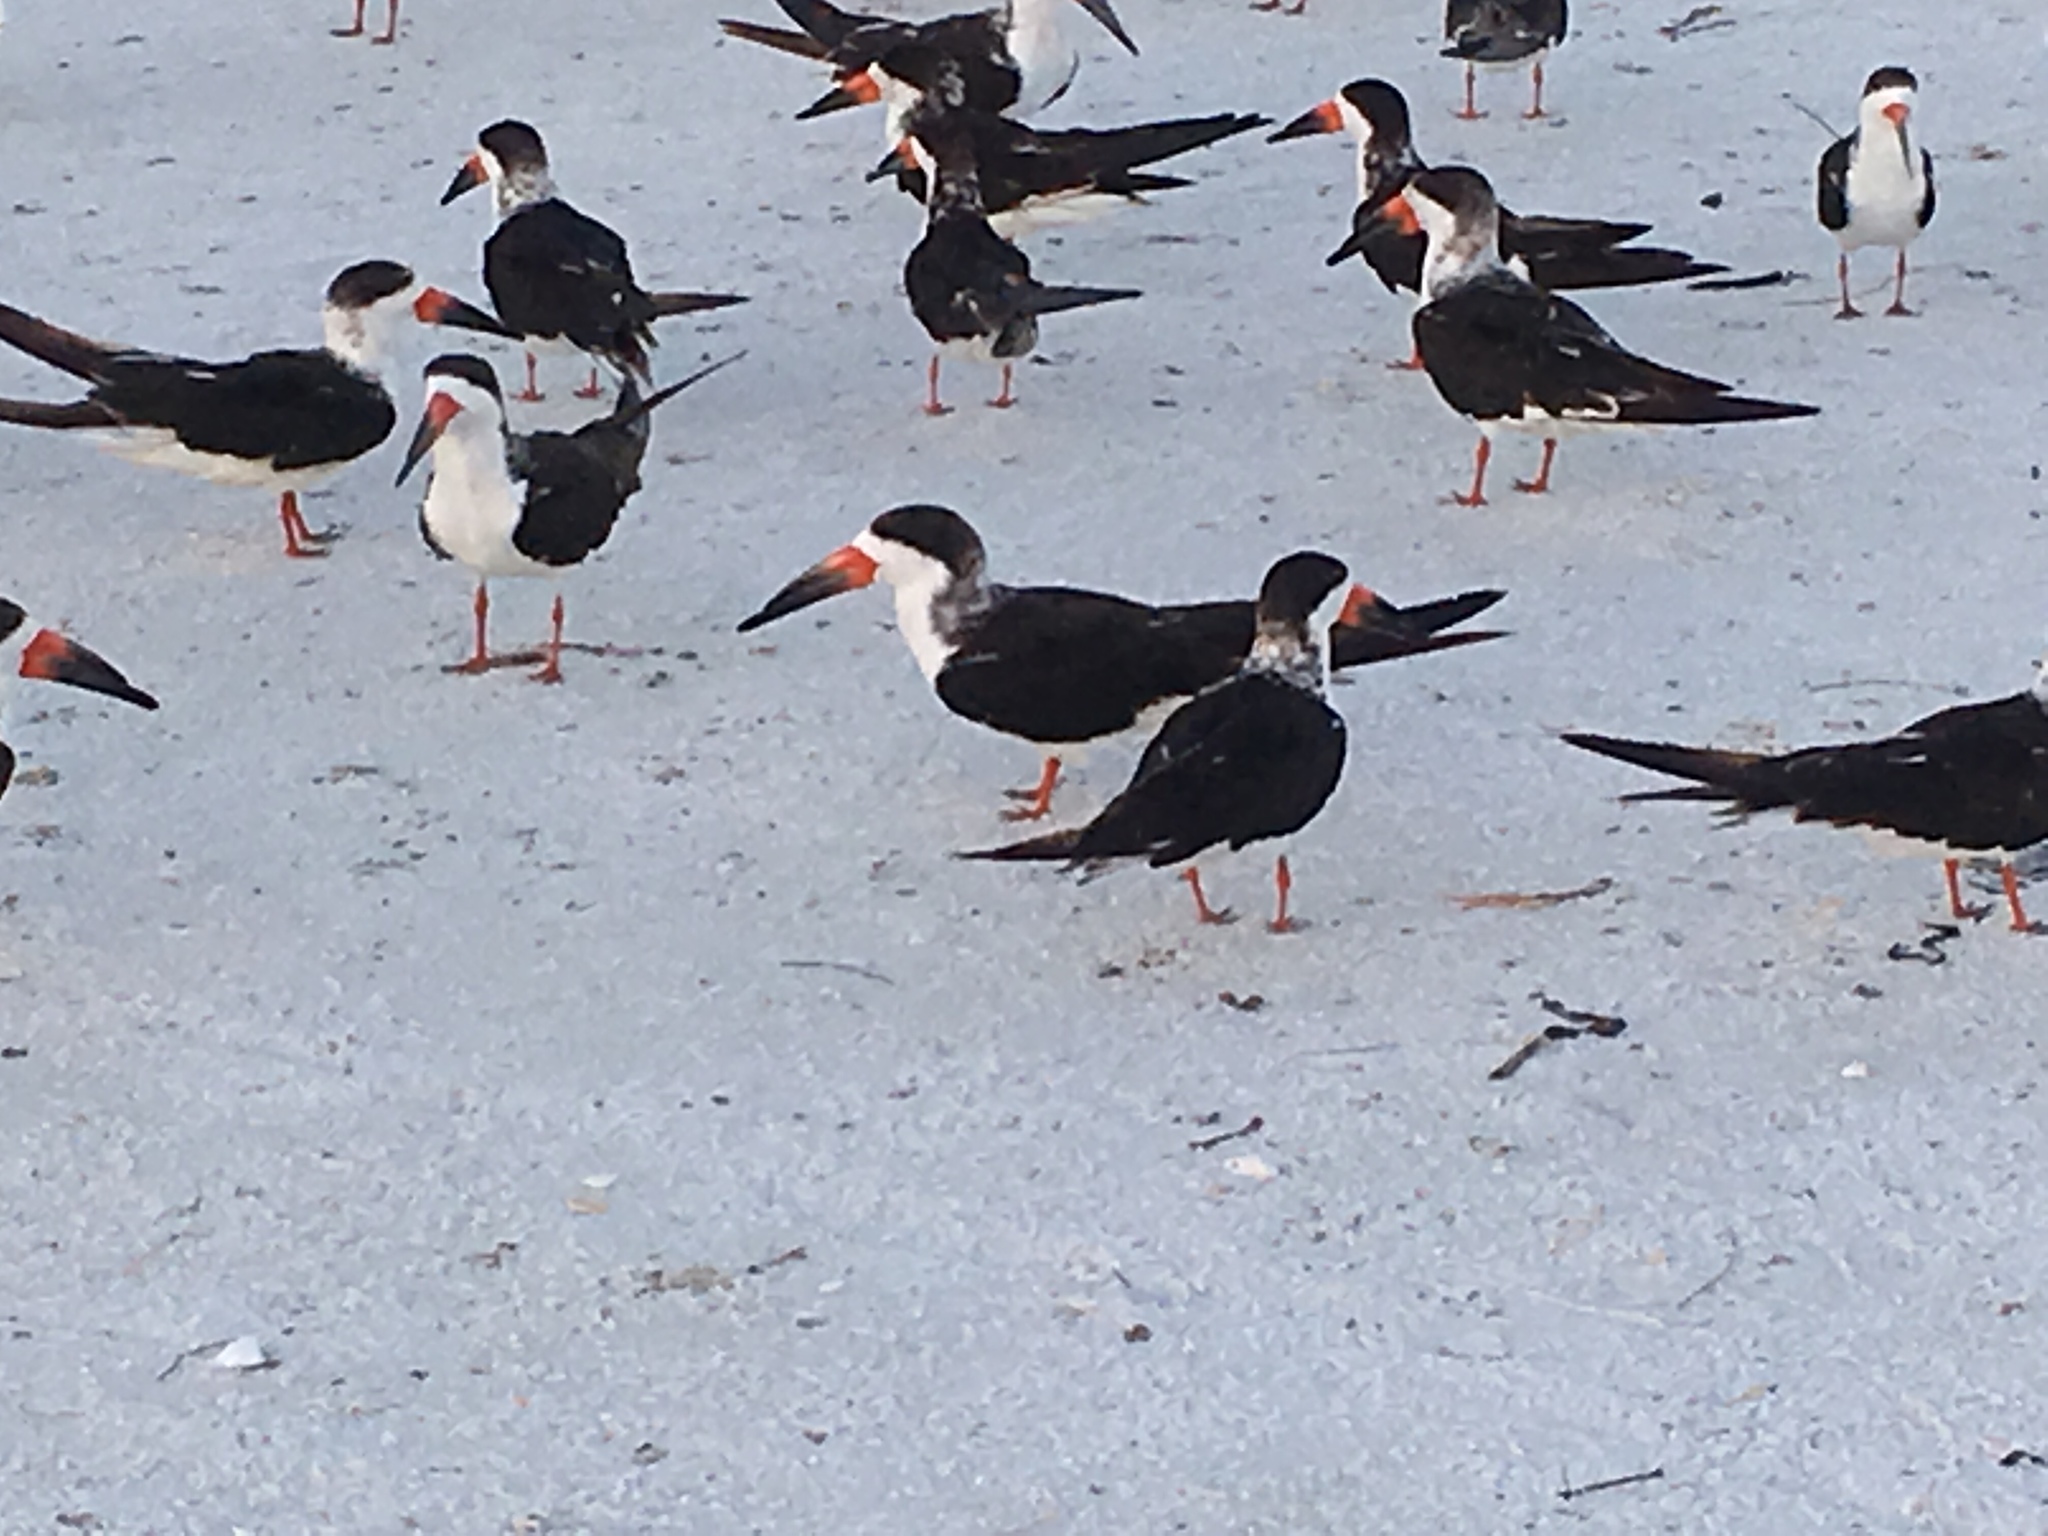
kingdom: Animalia
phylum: Chordata
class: Aves
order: Charadriiformes
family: Laridae
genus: Rynchops
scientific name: Rynchops niger
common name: Black skimmer
